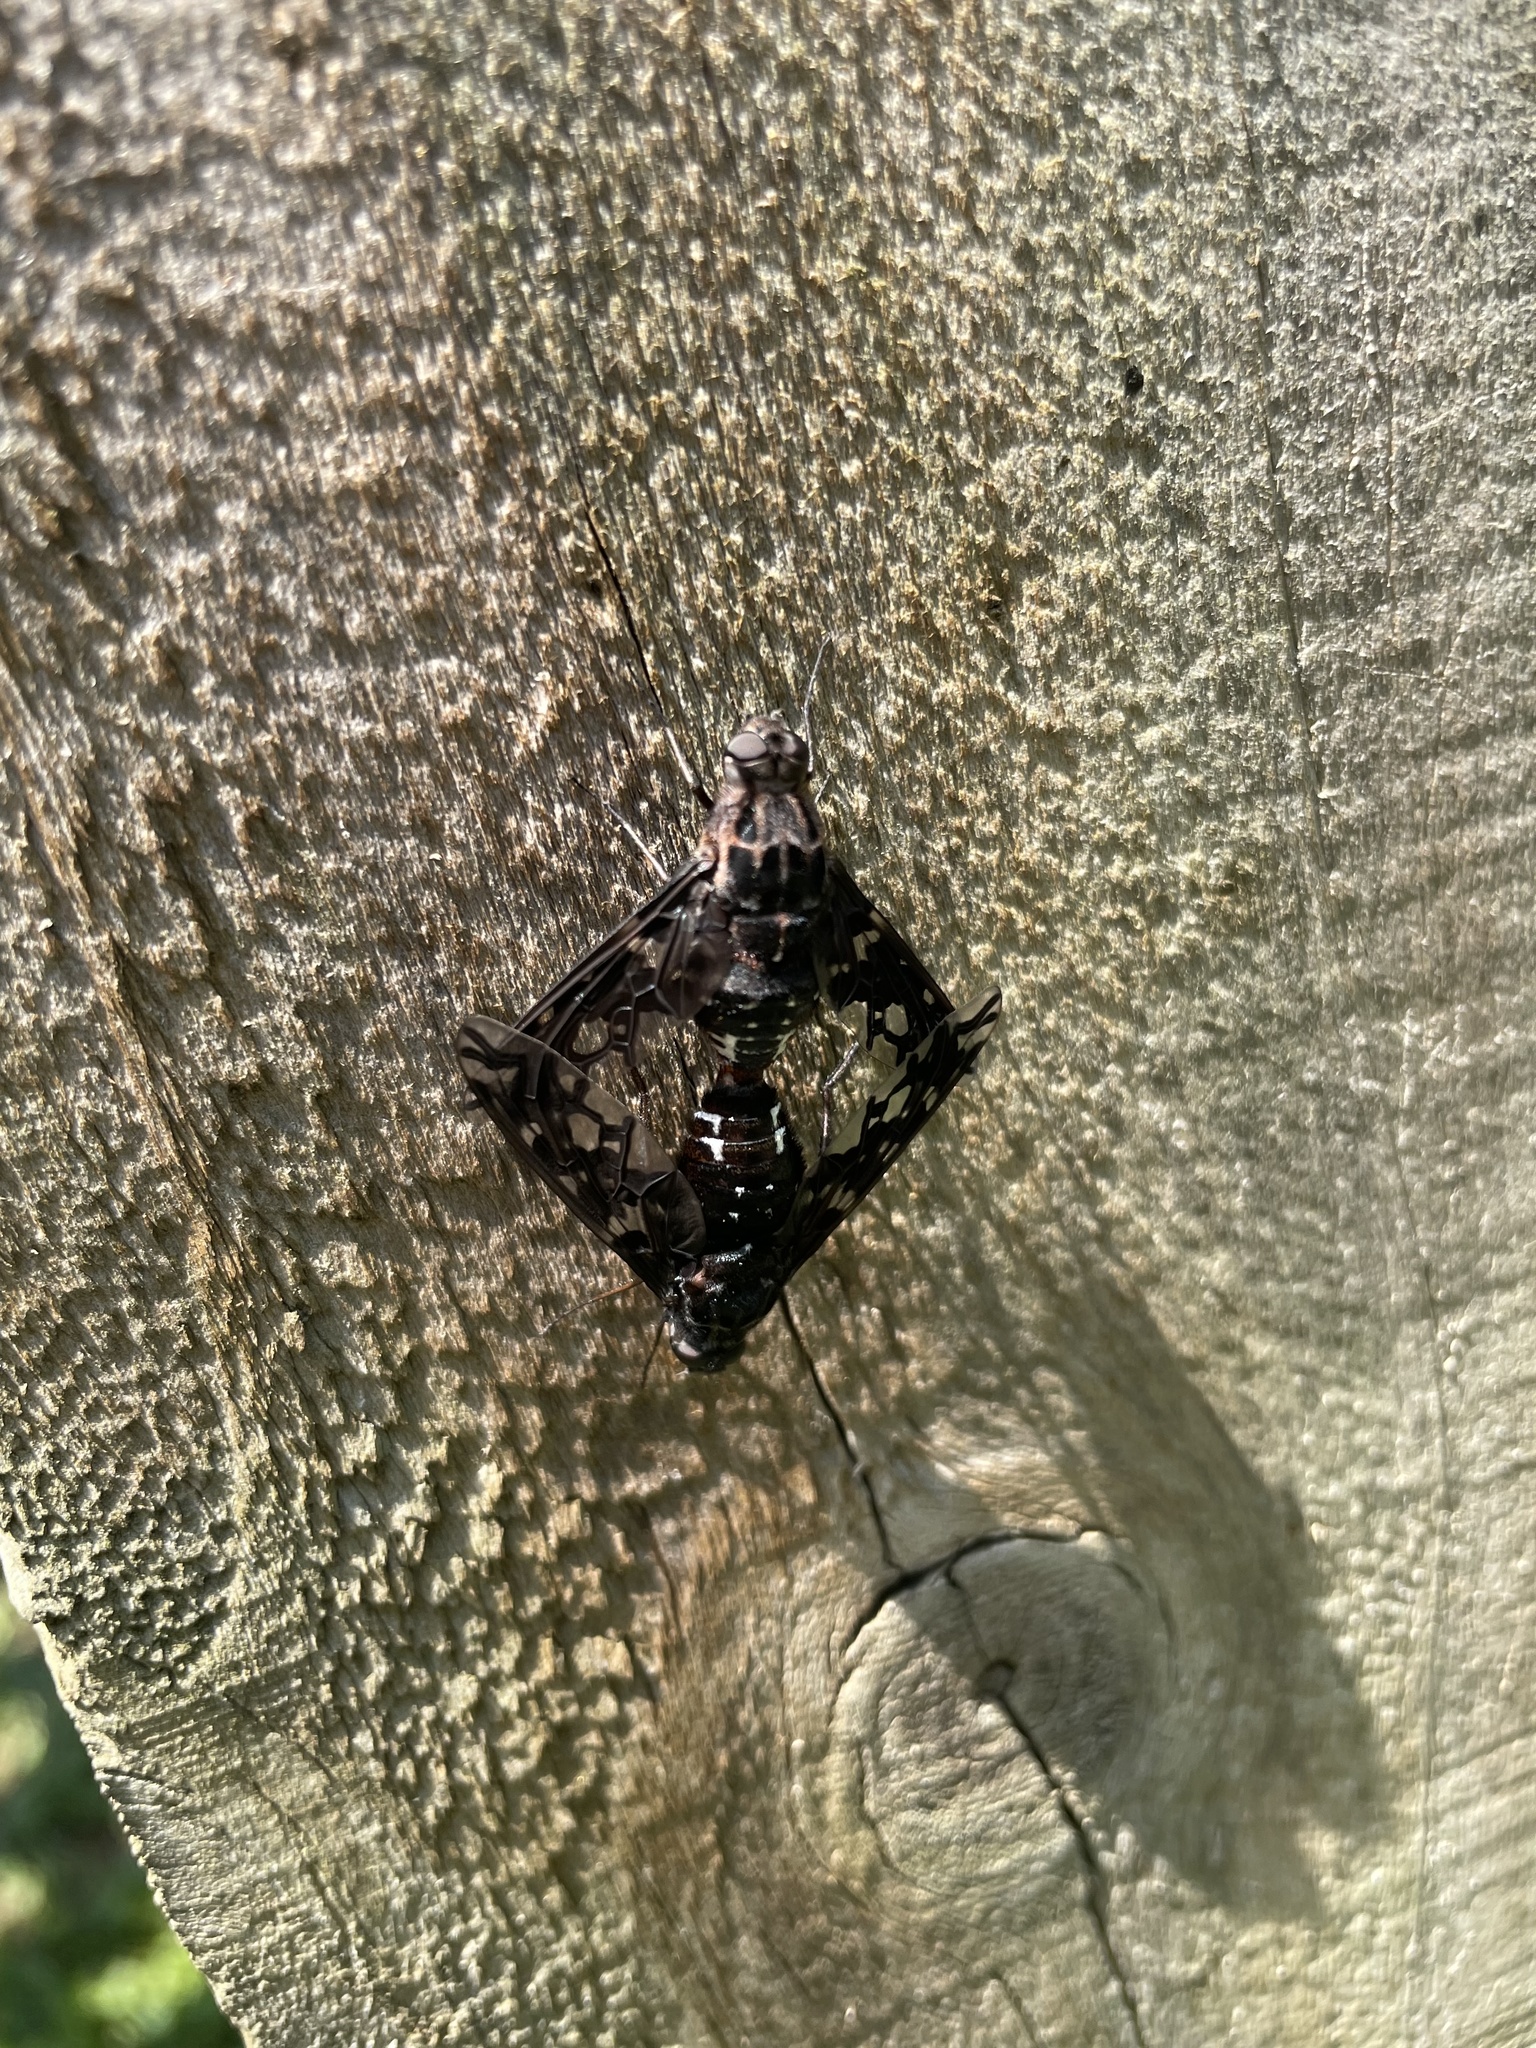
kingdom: Animalia
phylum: Arthropoda
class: Insecta
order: Diptera
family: Bombyliidae
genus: Xenox
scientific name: Xenox tigrinus
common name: Tiger bee fly
